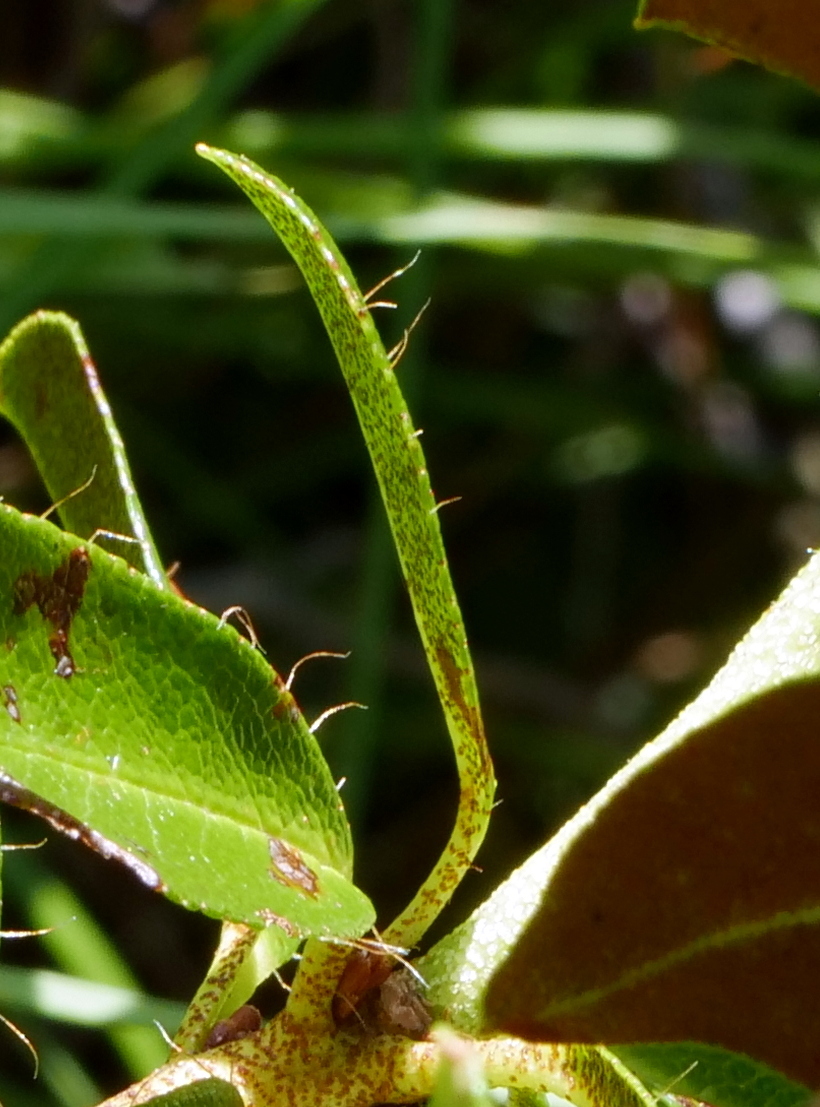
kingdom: Plantae
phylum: Tracheophyta
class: Magnoliopsida
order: Ericales
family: Ericaceae
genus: Rhododendron
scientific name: Rhododendron intermedium
